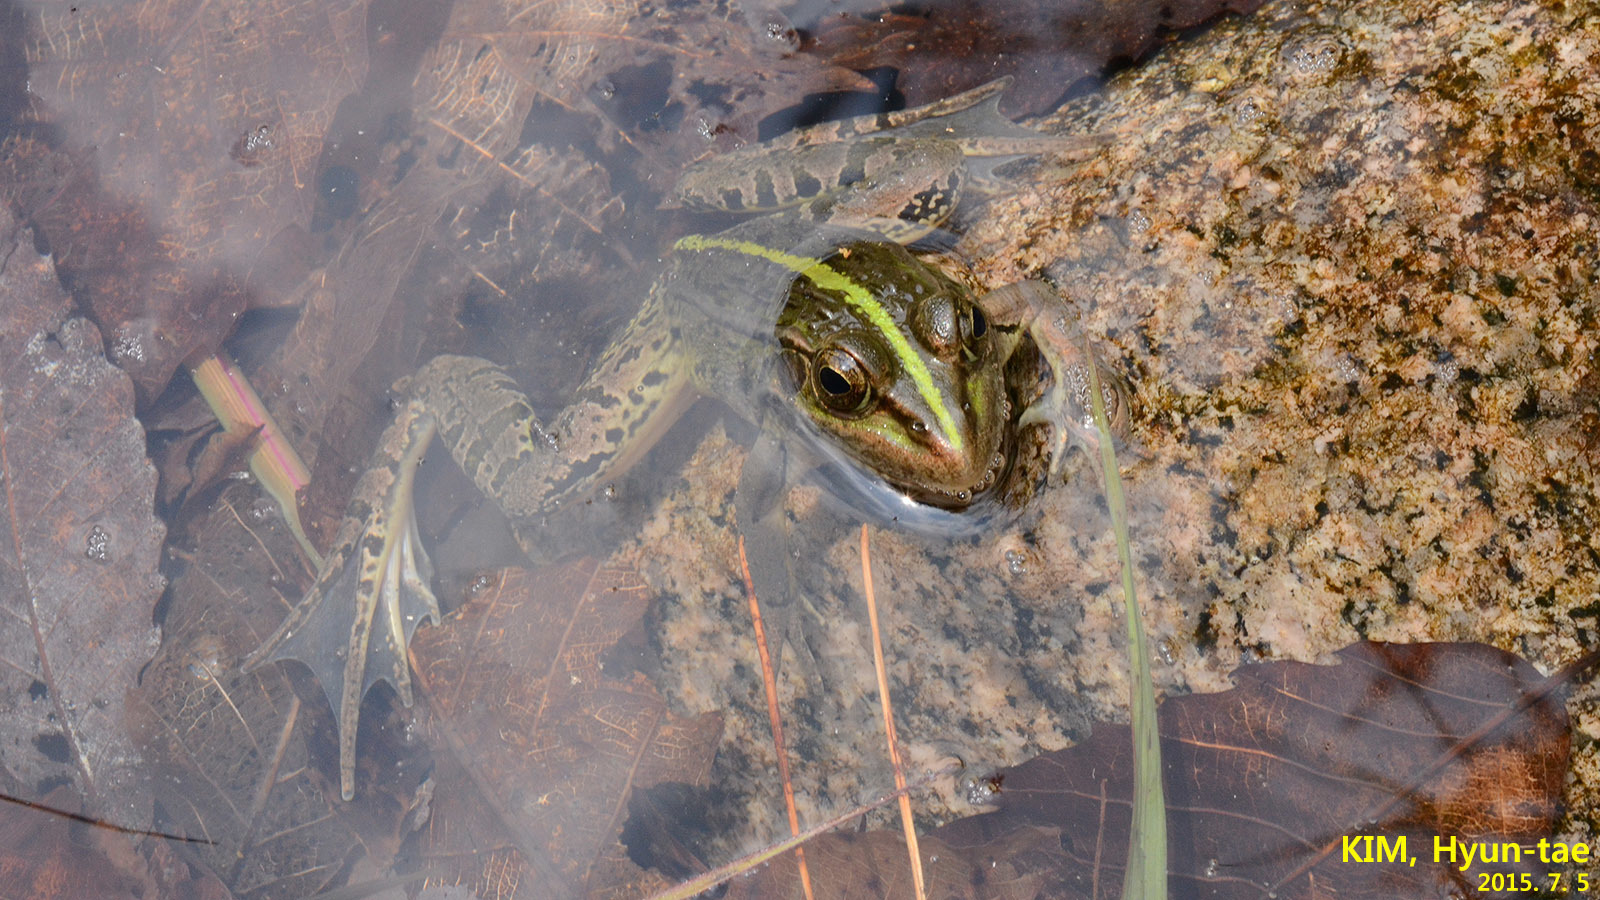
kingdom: Animalia
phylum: Chordata
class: Amphibia
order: Anura
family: Ranidae
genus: Pelophylax
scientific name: Pelophylax nigromaculatus
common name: Black-spotted pond frog
